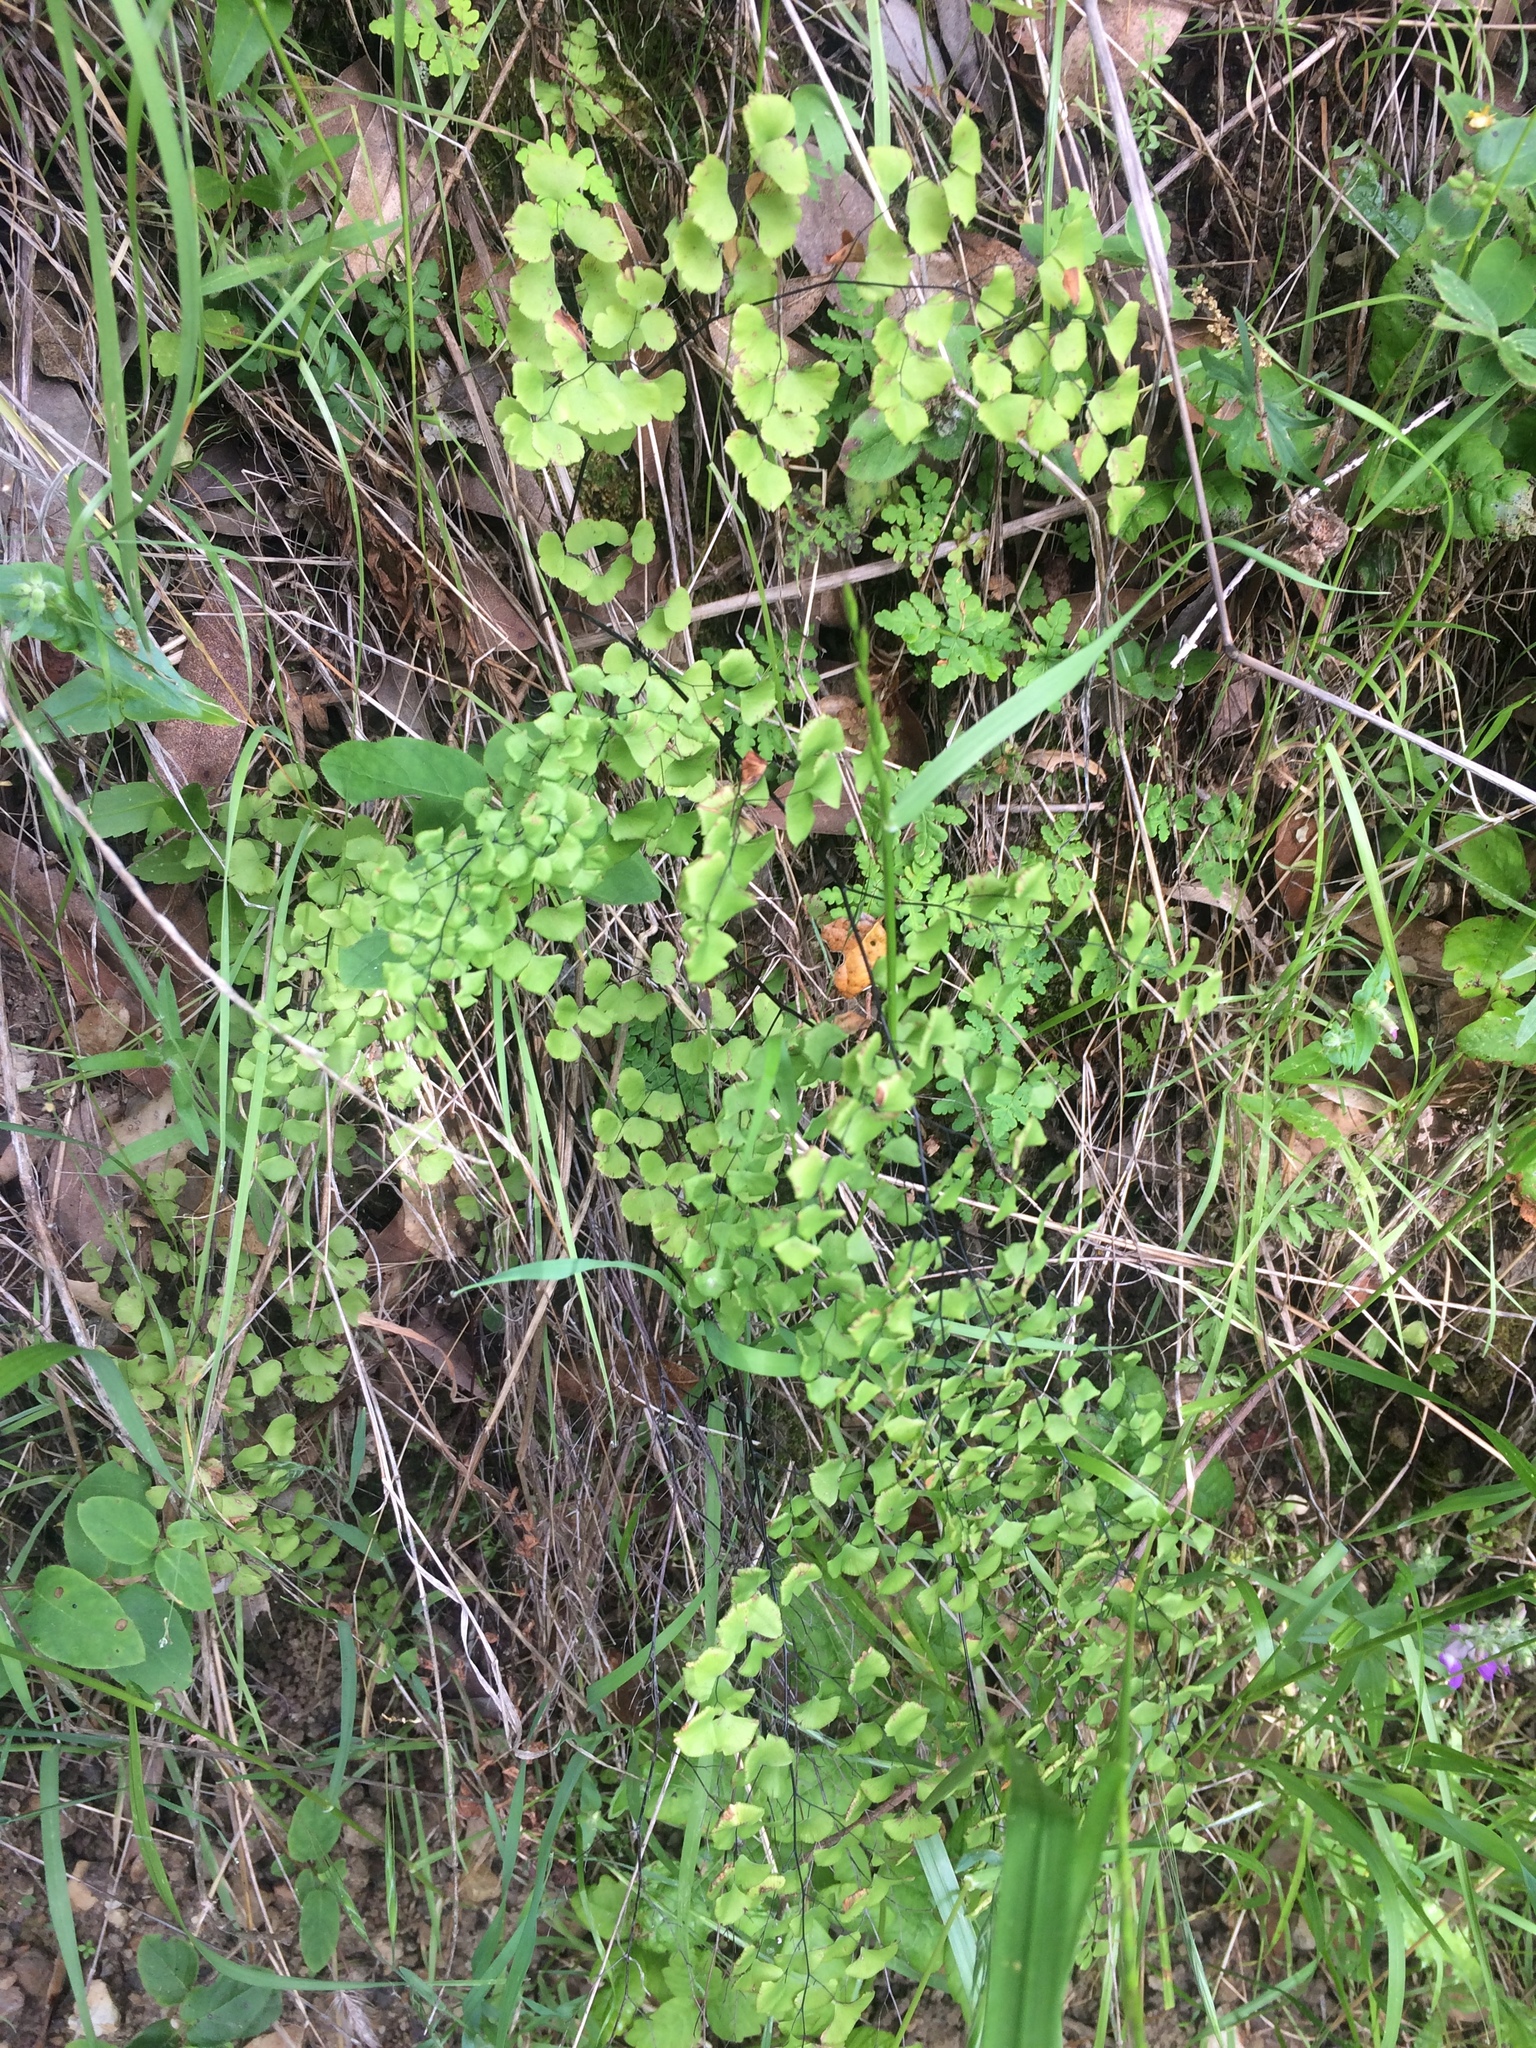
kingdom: Plantae
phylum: Tracheophyta
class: Polypodiopsida
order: Polypodiales
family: Pteridaceae
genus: Adiantum
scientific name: Adiantum jordanii
